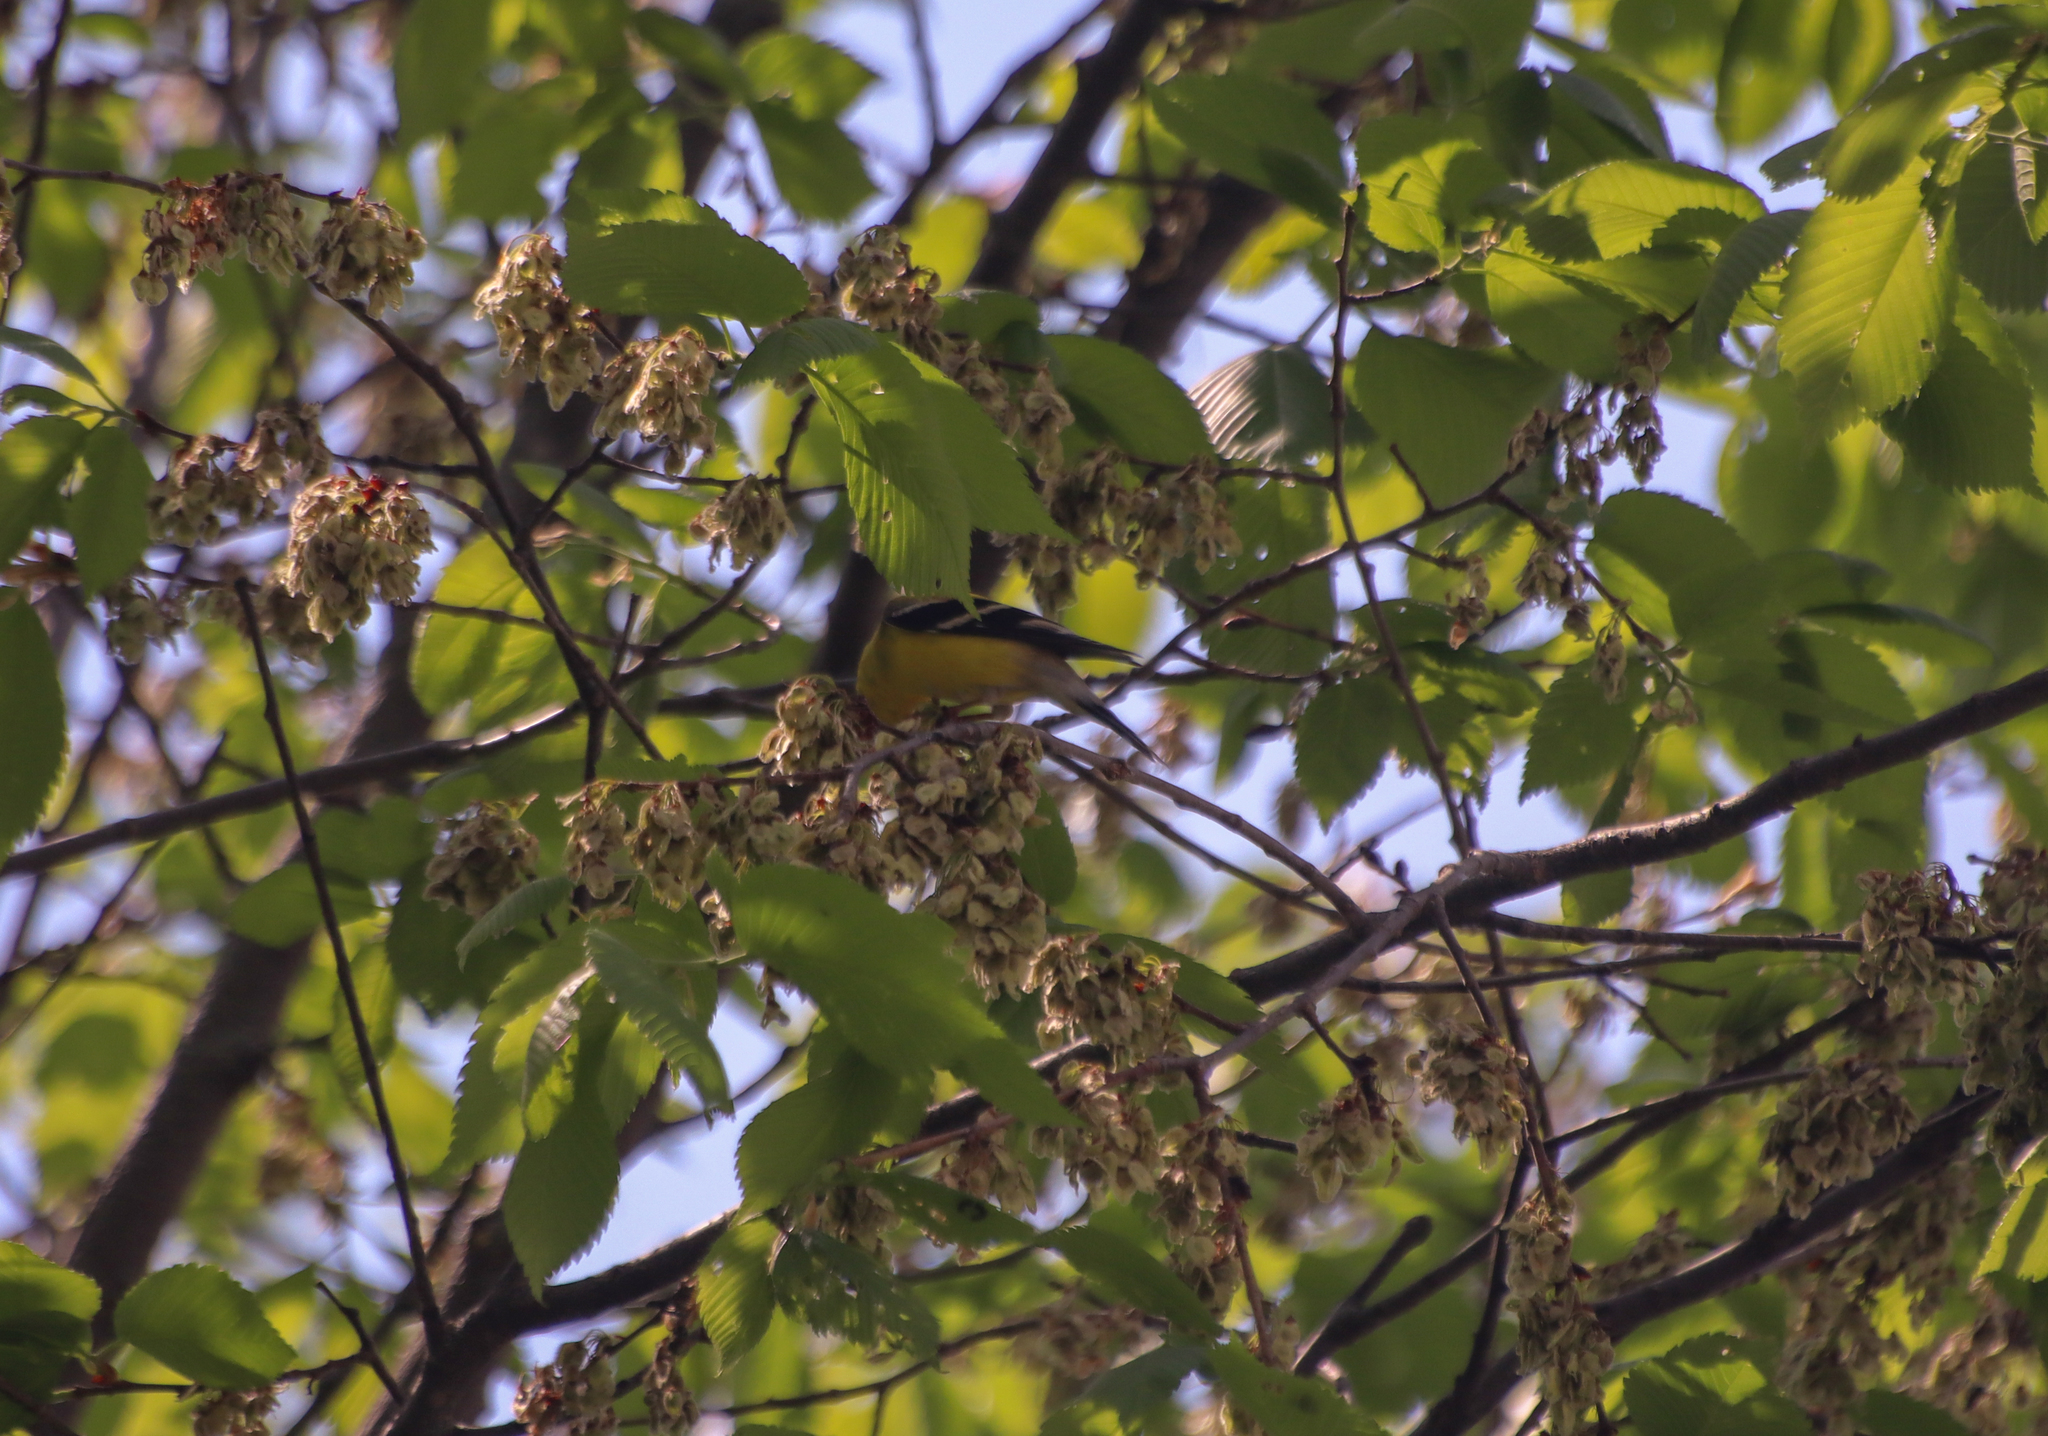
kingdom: Animalia
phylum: Chordata
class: Aves
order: Passeriformes
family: Fringillidae
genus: Spinus
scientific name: Spinus tristis
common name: American goldfinch
